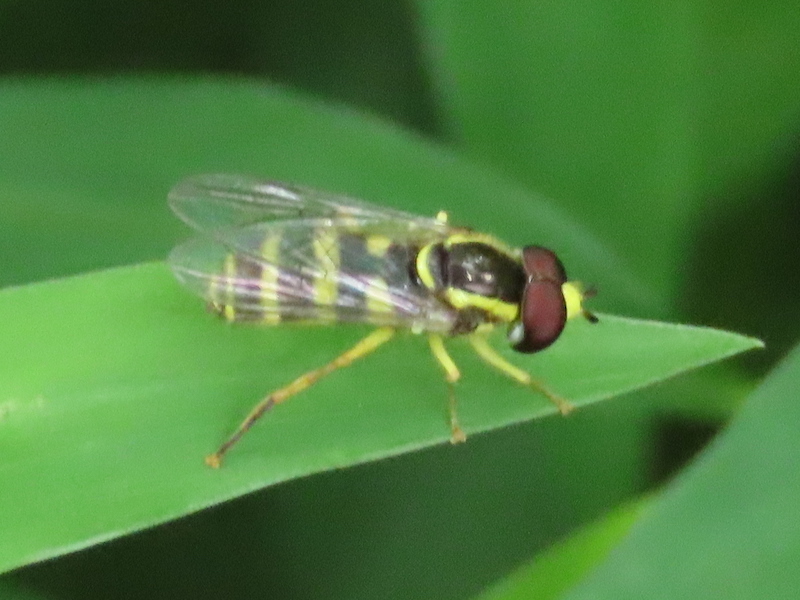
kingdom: Animalia
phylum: Arthropoda
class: Insecta
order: Diptera
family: Syrphidae
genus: Philhelius
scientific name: Philhelius flavipes
